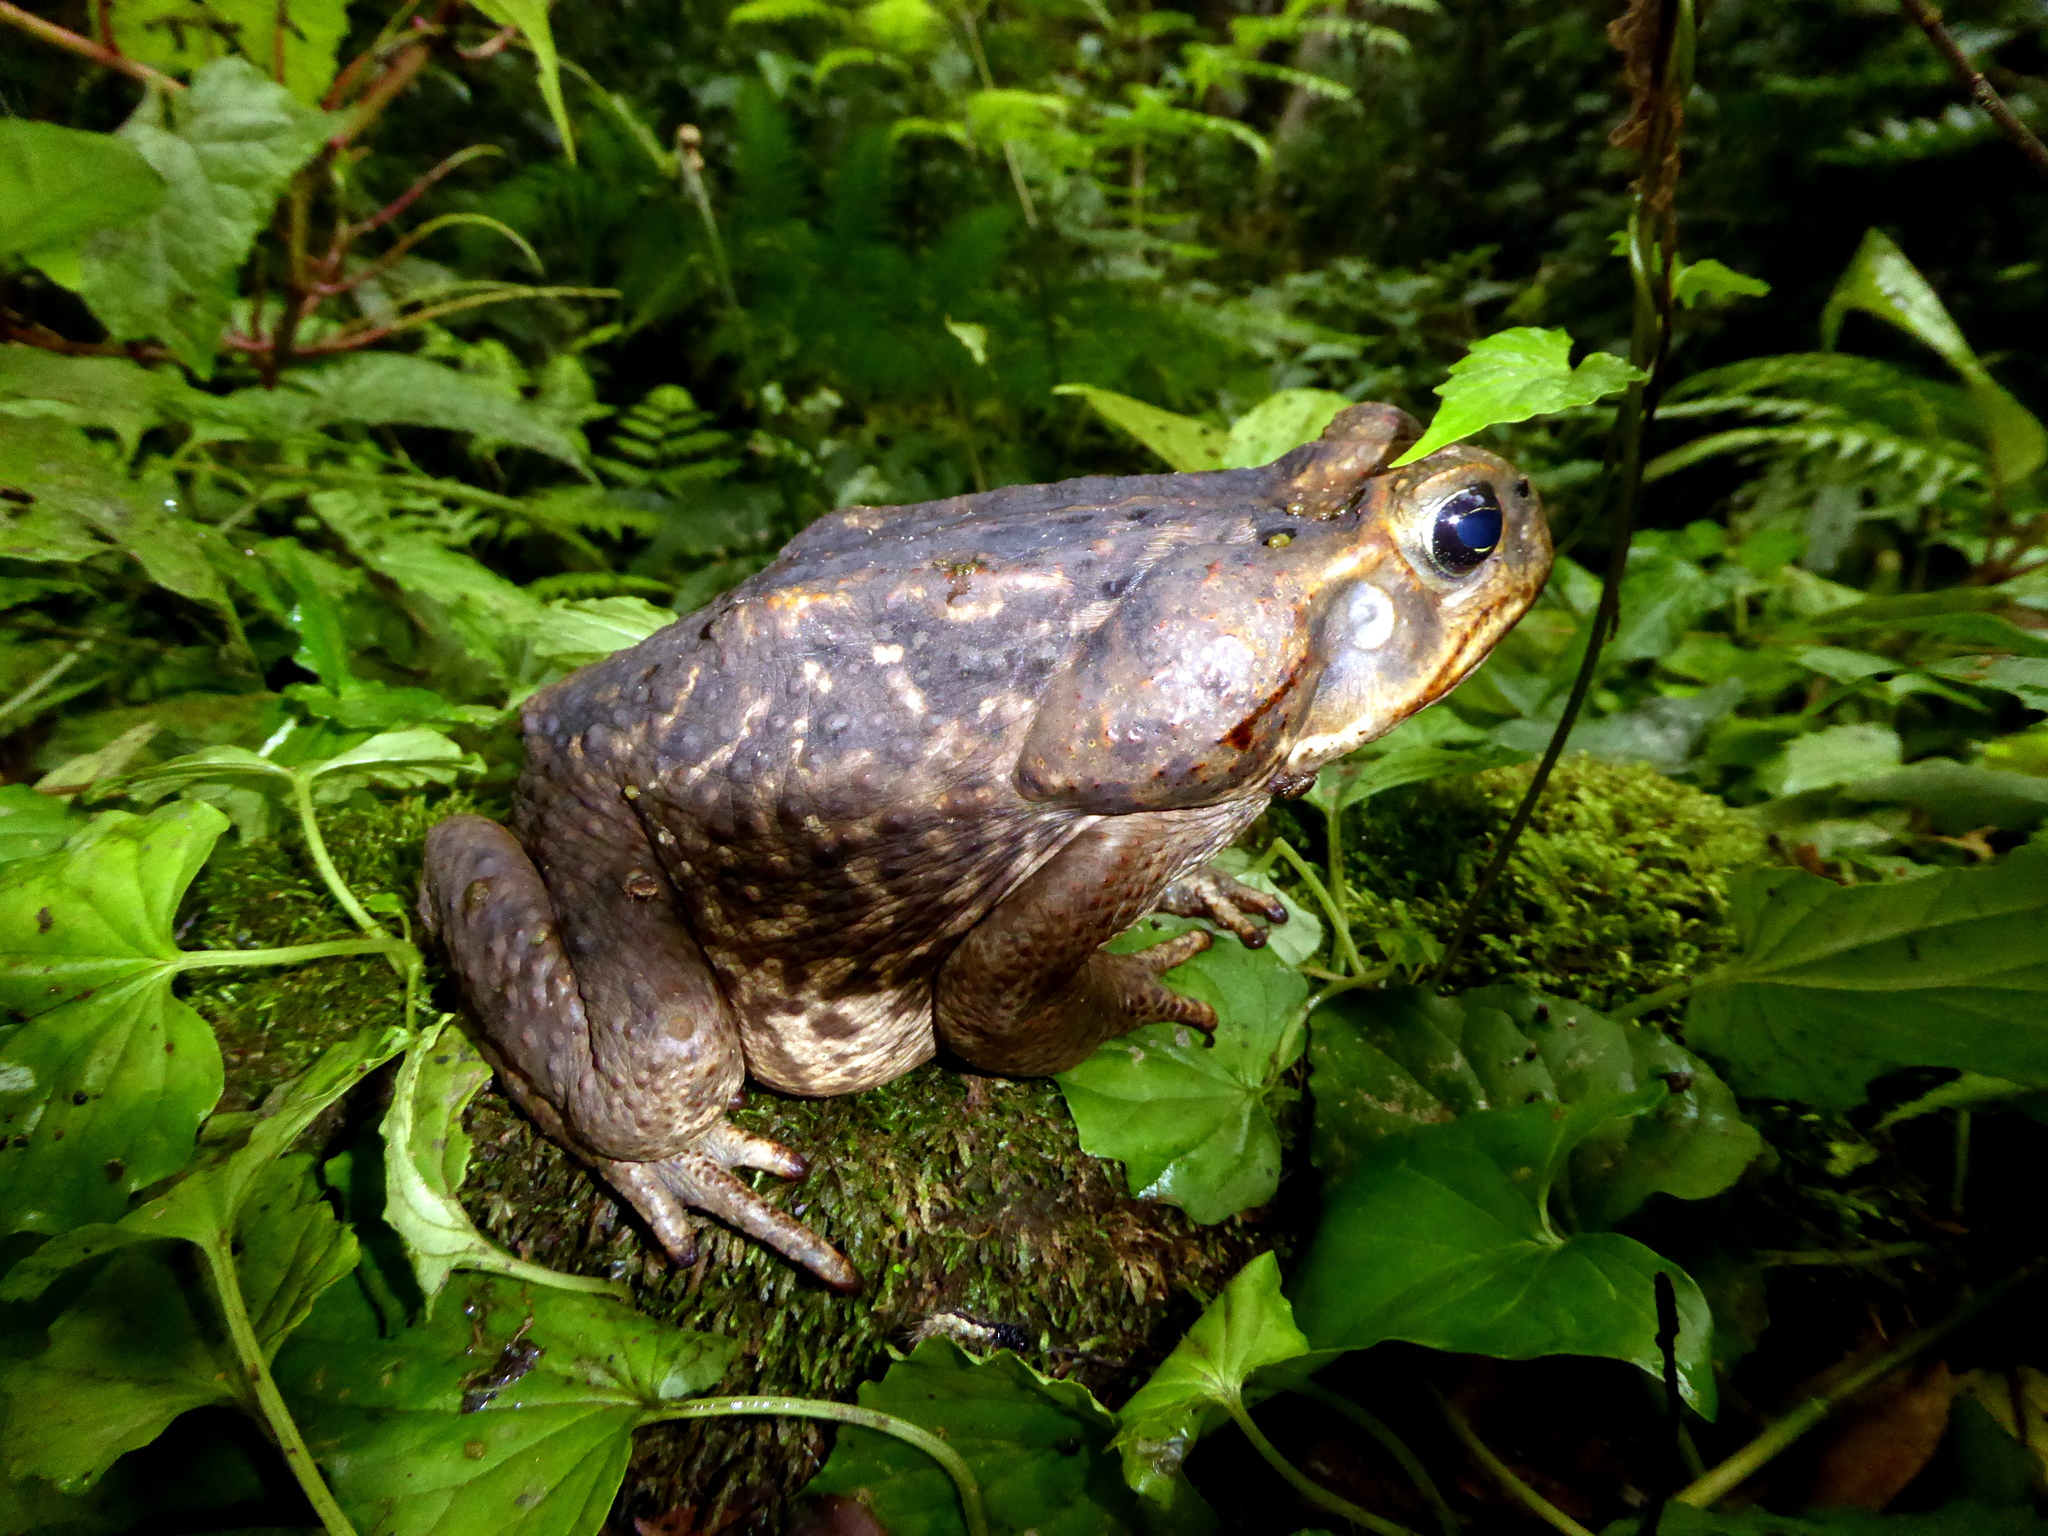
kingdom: Animalia
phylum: Chordata
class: Amphibia
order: Anura
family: Bufonidae
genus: Rhinella
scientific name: Rhinella horribilis
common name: Mesoamerican cane toad
